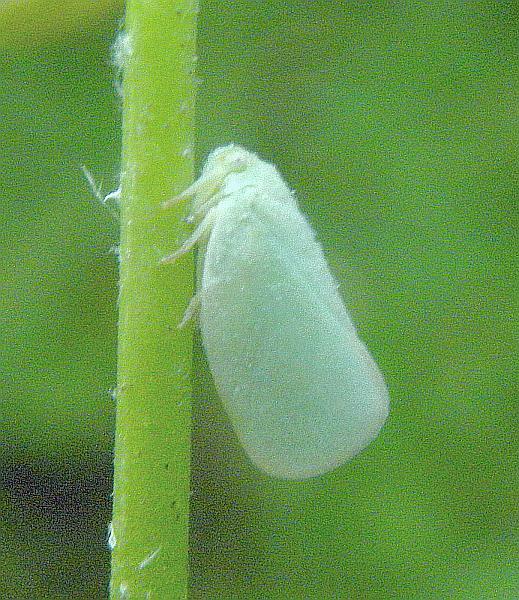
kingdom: Animalia
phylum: Arthropoda
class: Insecta
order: Hemiptera
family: Flatidae
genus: Ormenoides
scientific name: Ormenoides venusta
